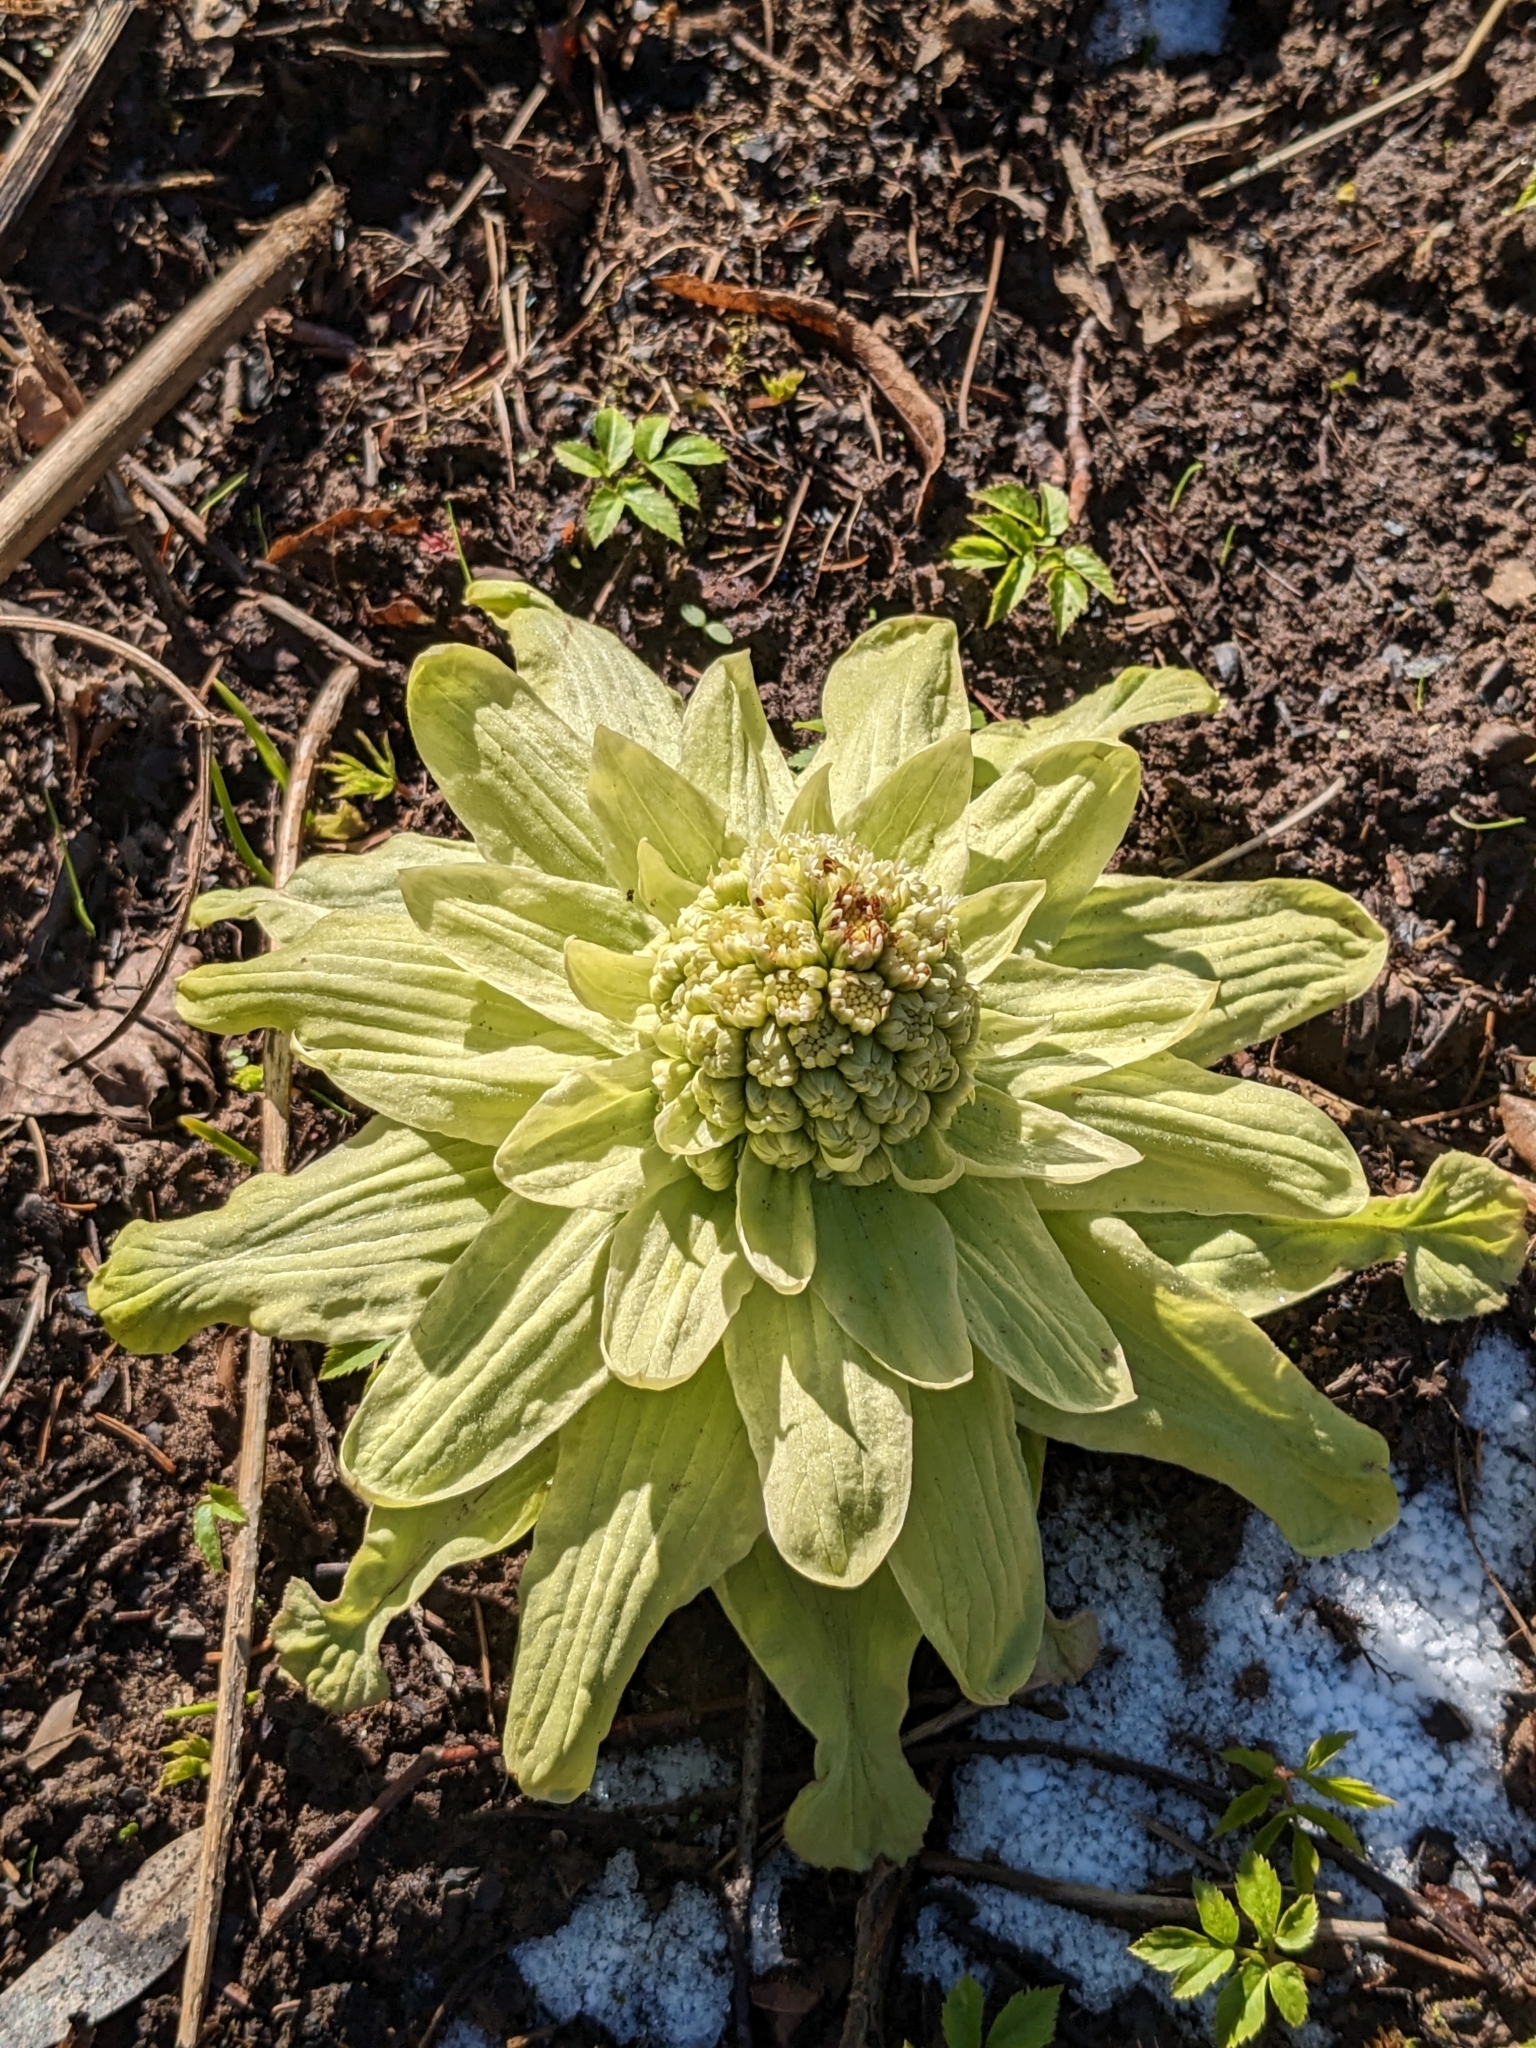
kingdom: Plantae
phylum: Tracheophyta
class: Magnoliopsida
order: Asterales
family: Asteraceae
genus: Petasites
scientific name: Petasites japonicus
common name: Giant butterbur
